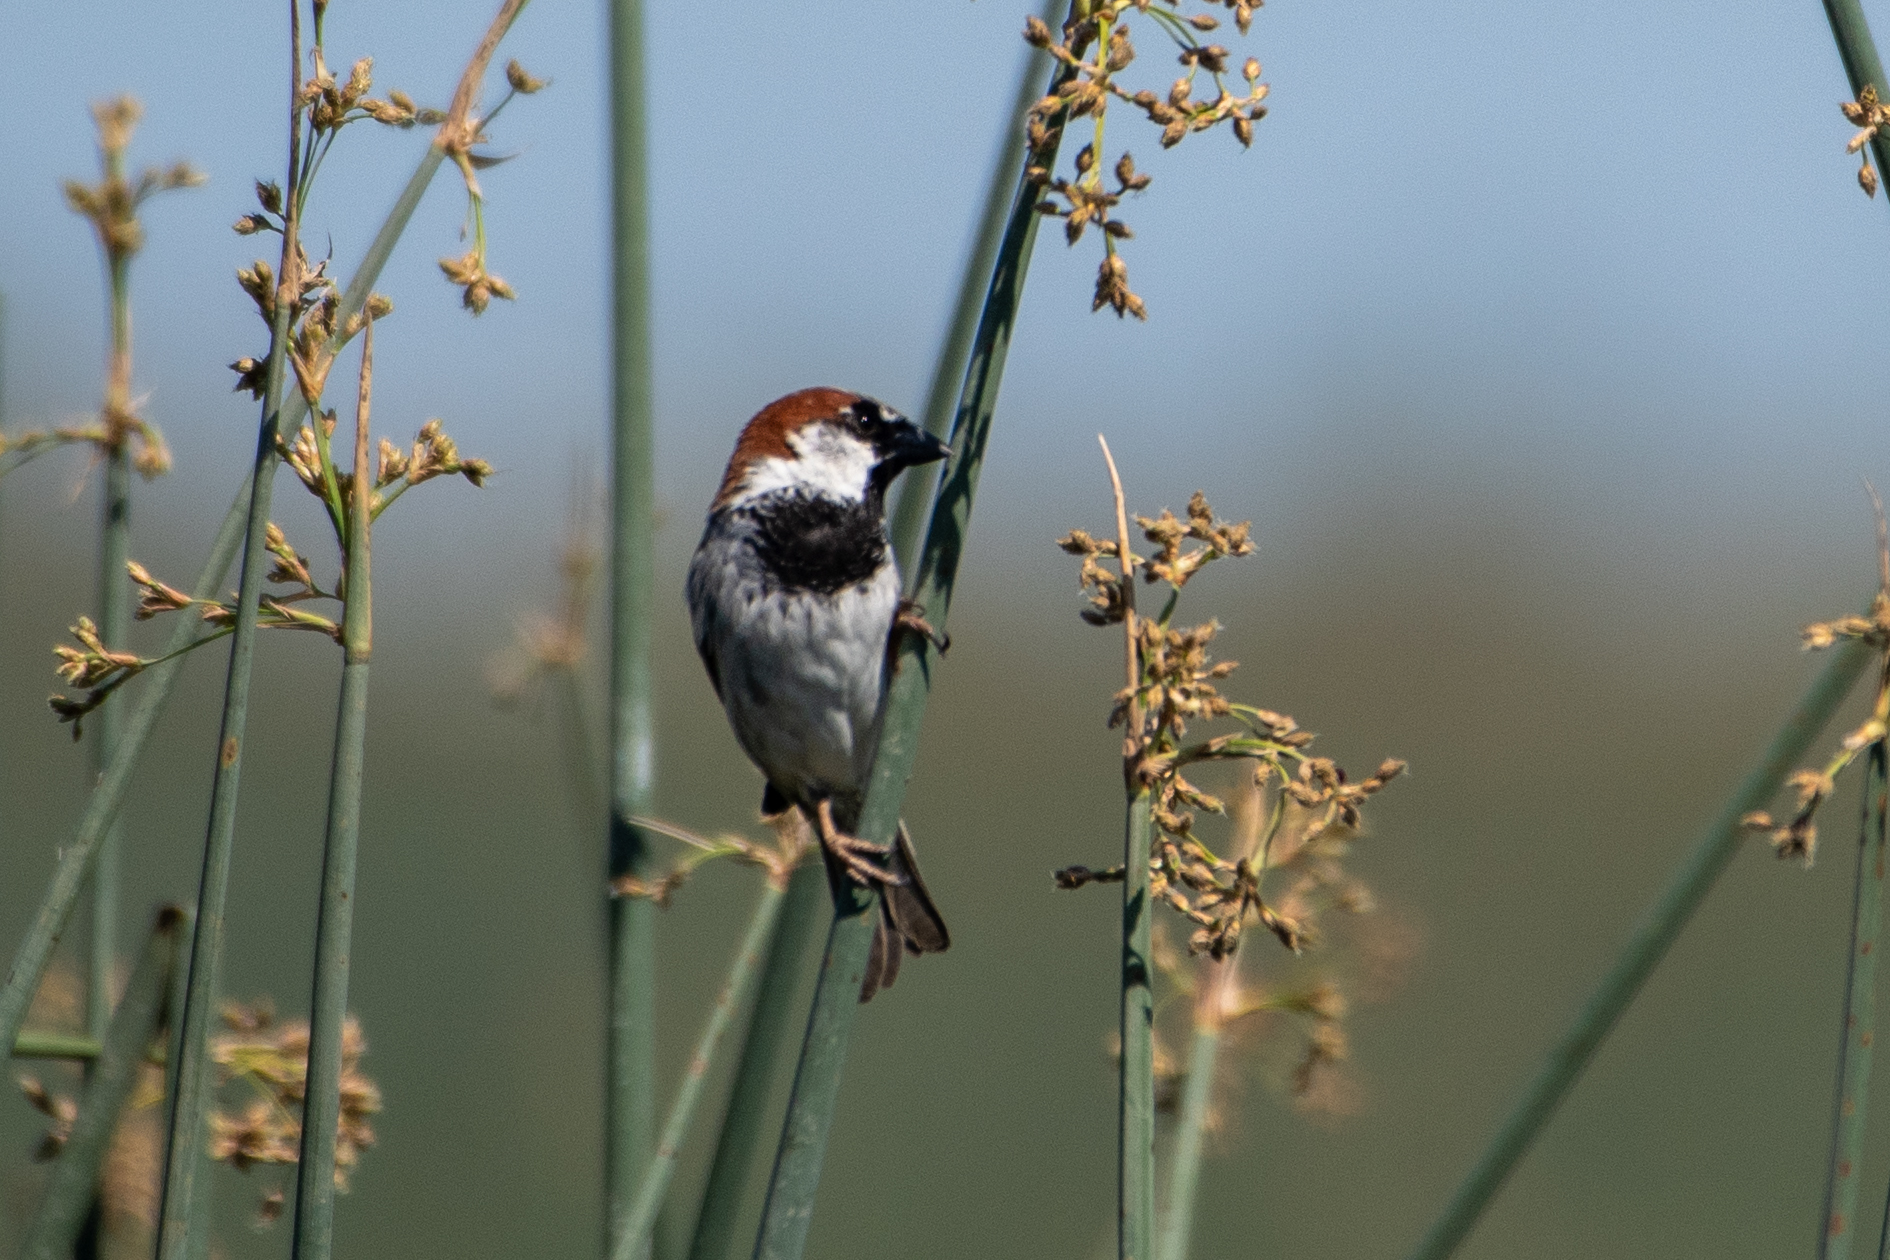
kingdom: Animalia
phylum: Chordata
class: Aves
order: Passeriformes
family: Passeridae
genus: Passer
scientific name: Passer domesticus
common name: House sparrow
